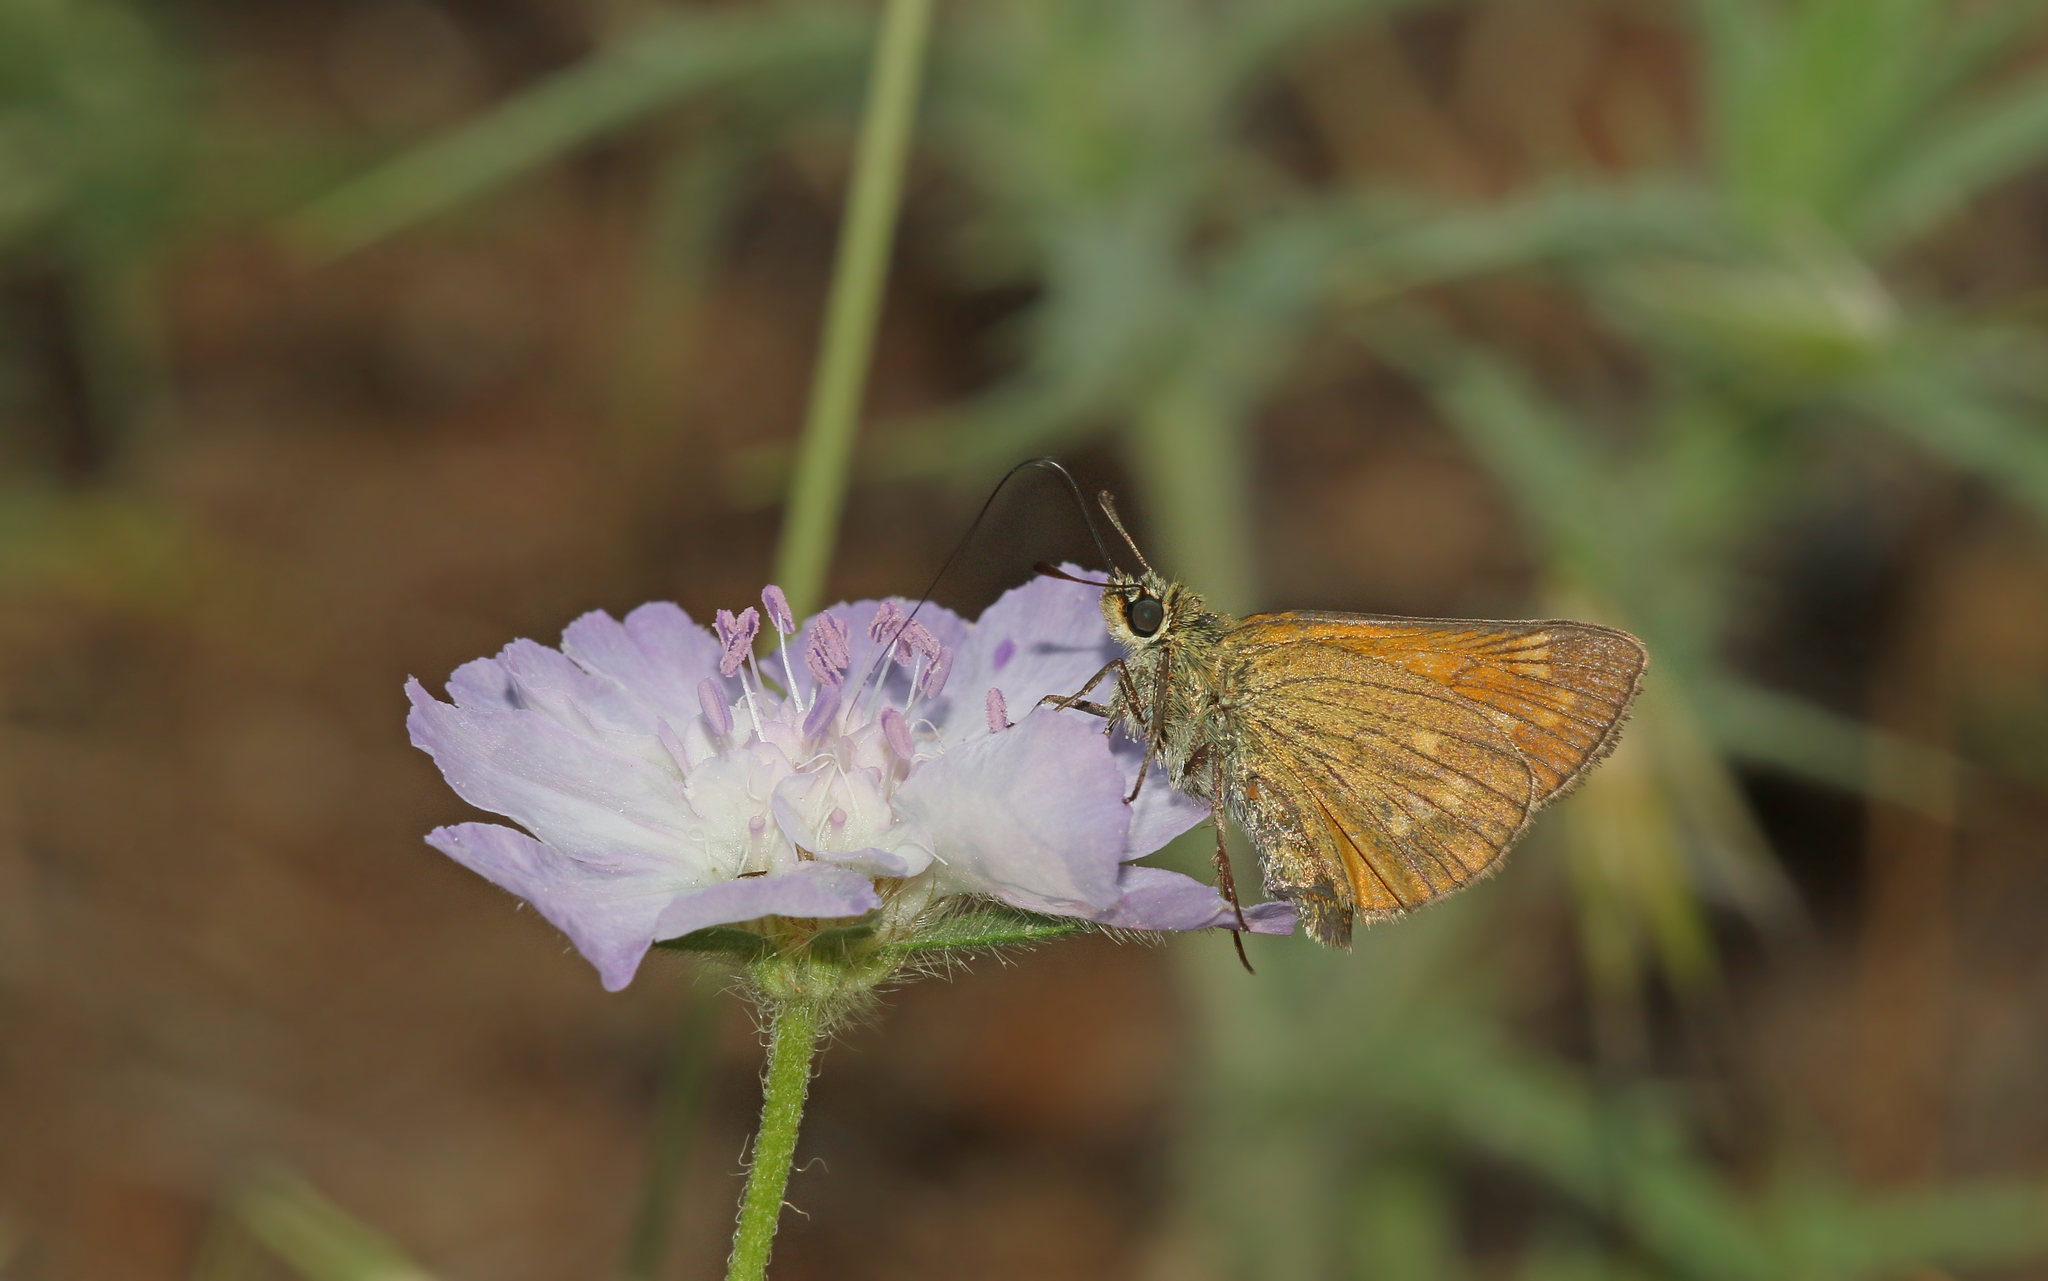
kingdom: Animalia
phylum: Arthropoda
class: Insecta
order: Lepidoptera
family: Hesperiidae
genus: Ochlodes
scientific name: Ochlodes venata
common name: Large skipper
